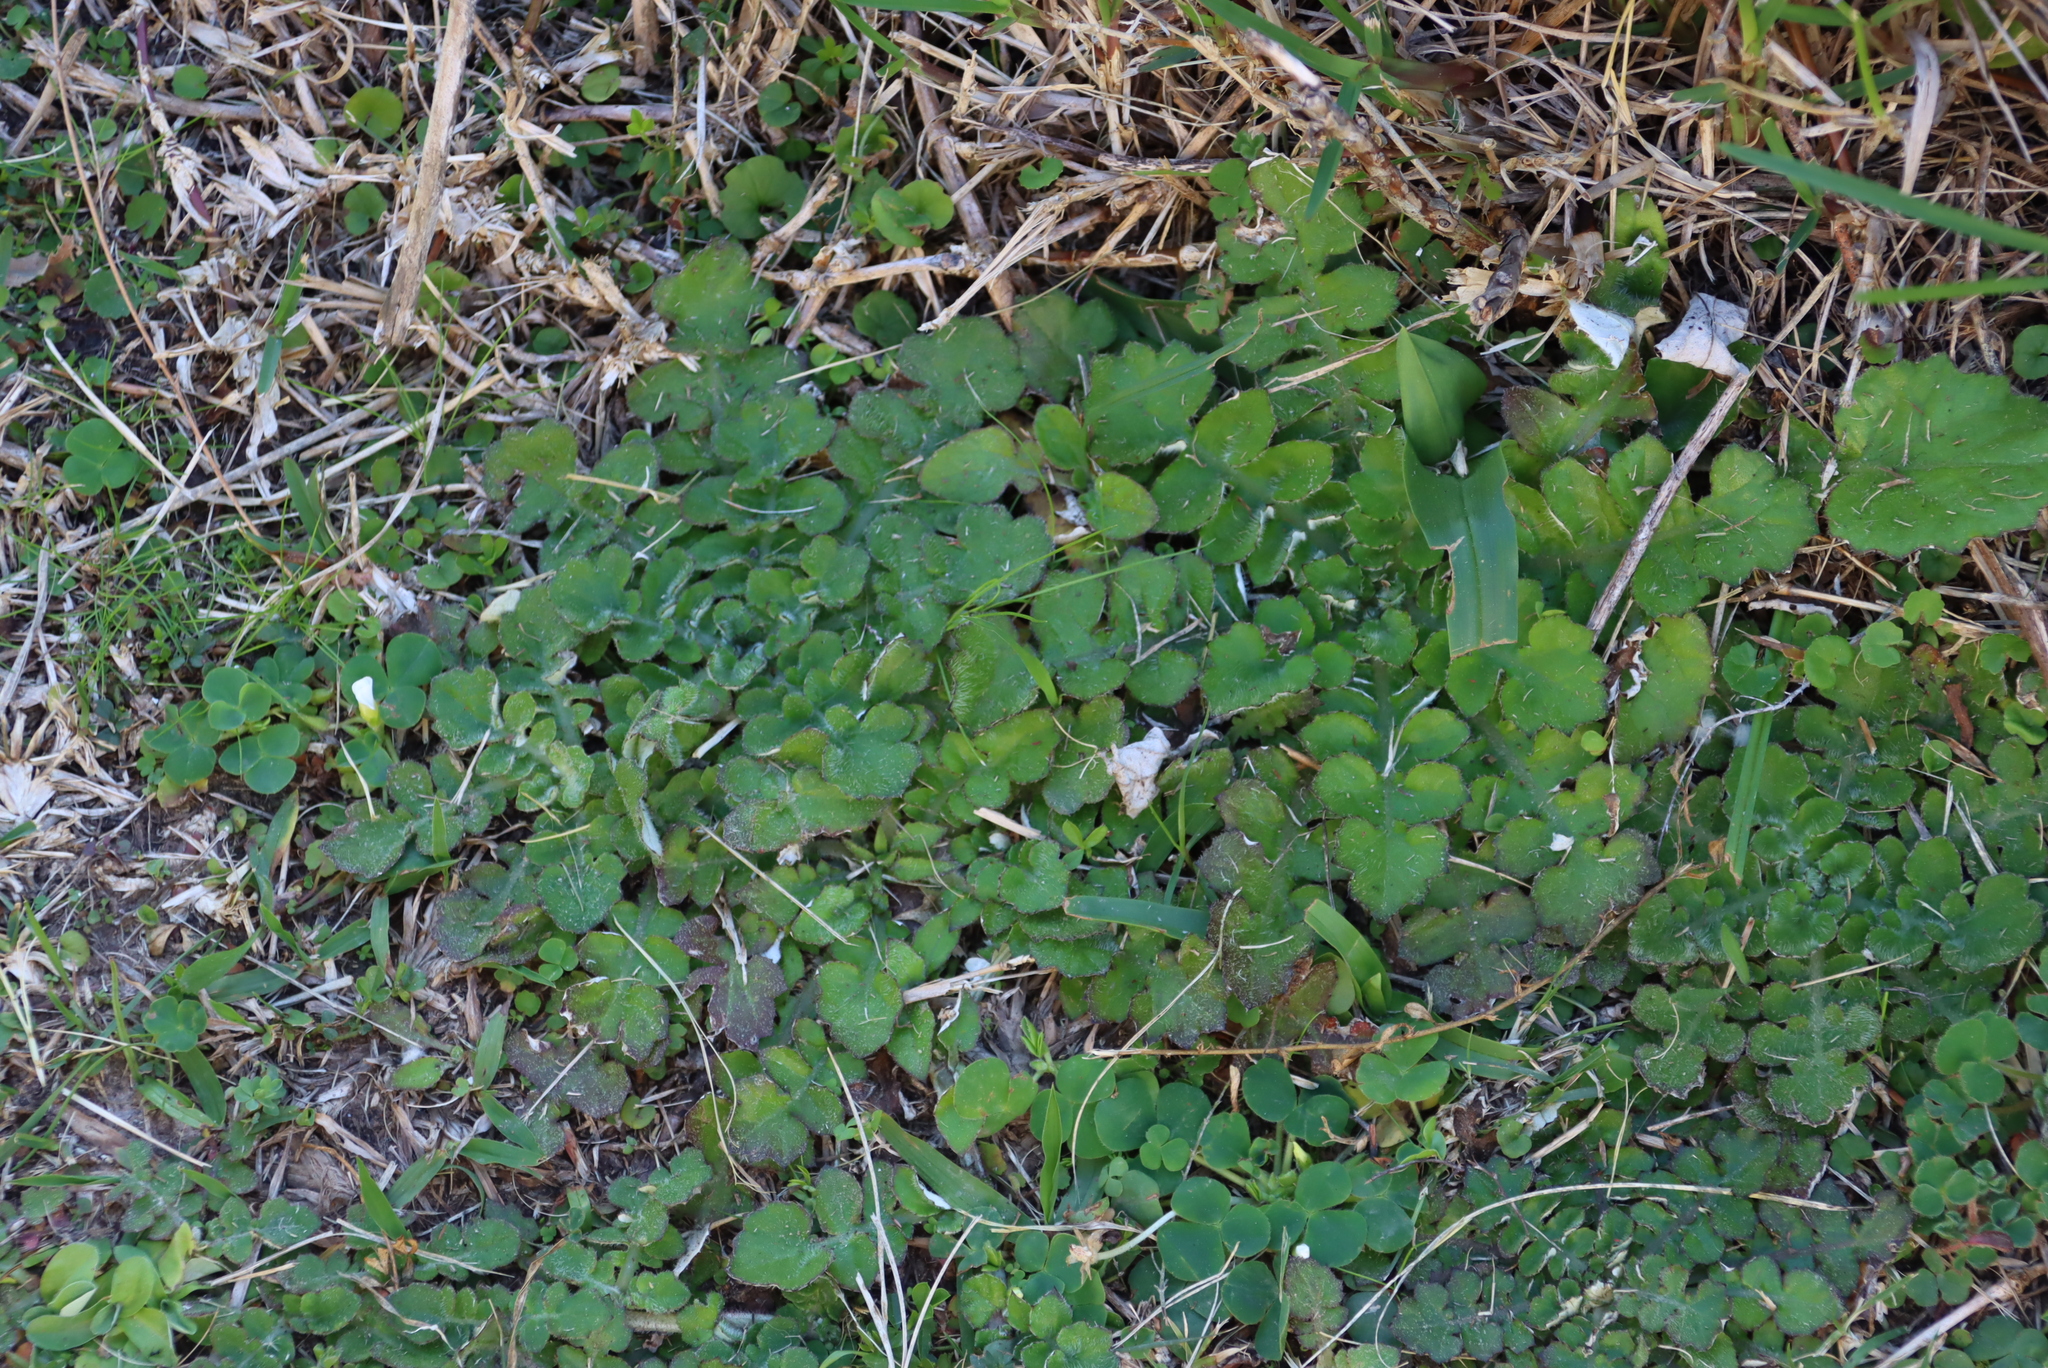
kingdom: Plantae
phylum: Tracheophyta
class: Magnoliopsida
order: Asterales
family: Asteraceae
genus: Arctotheca
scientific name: Arctotheca prostrata
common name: Capeweed
